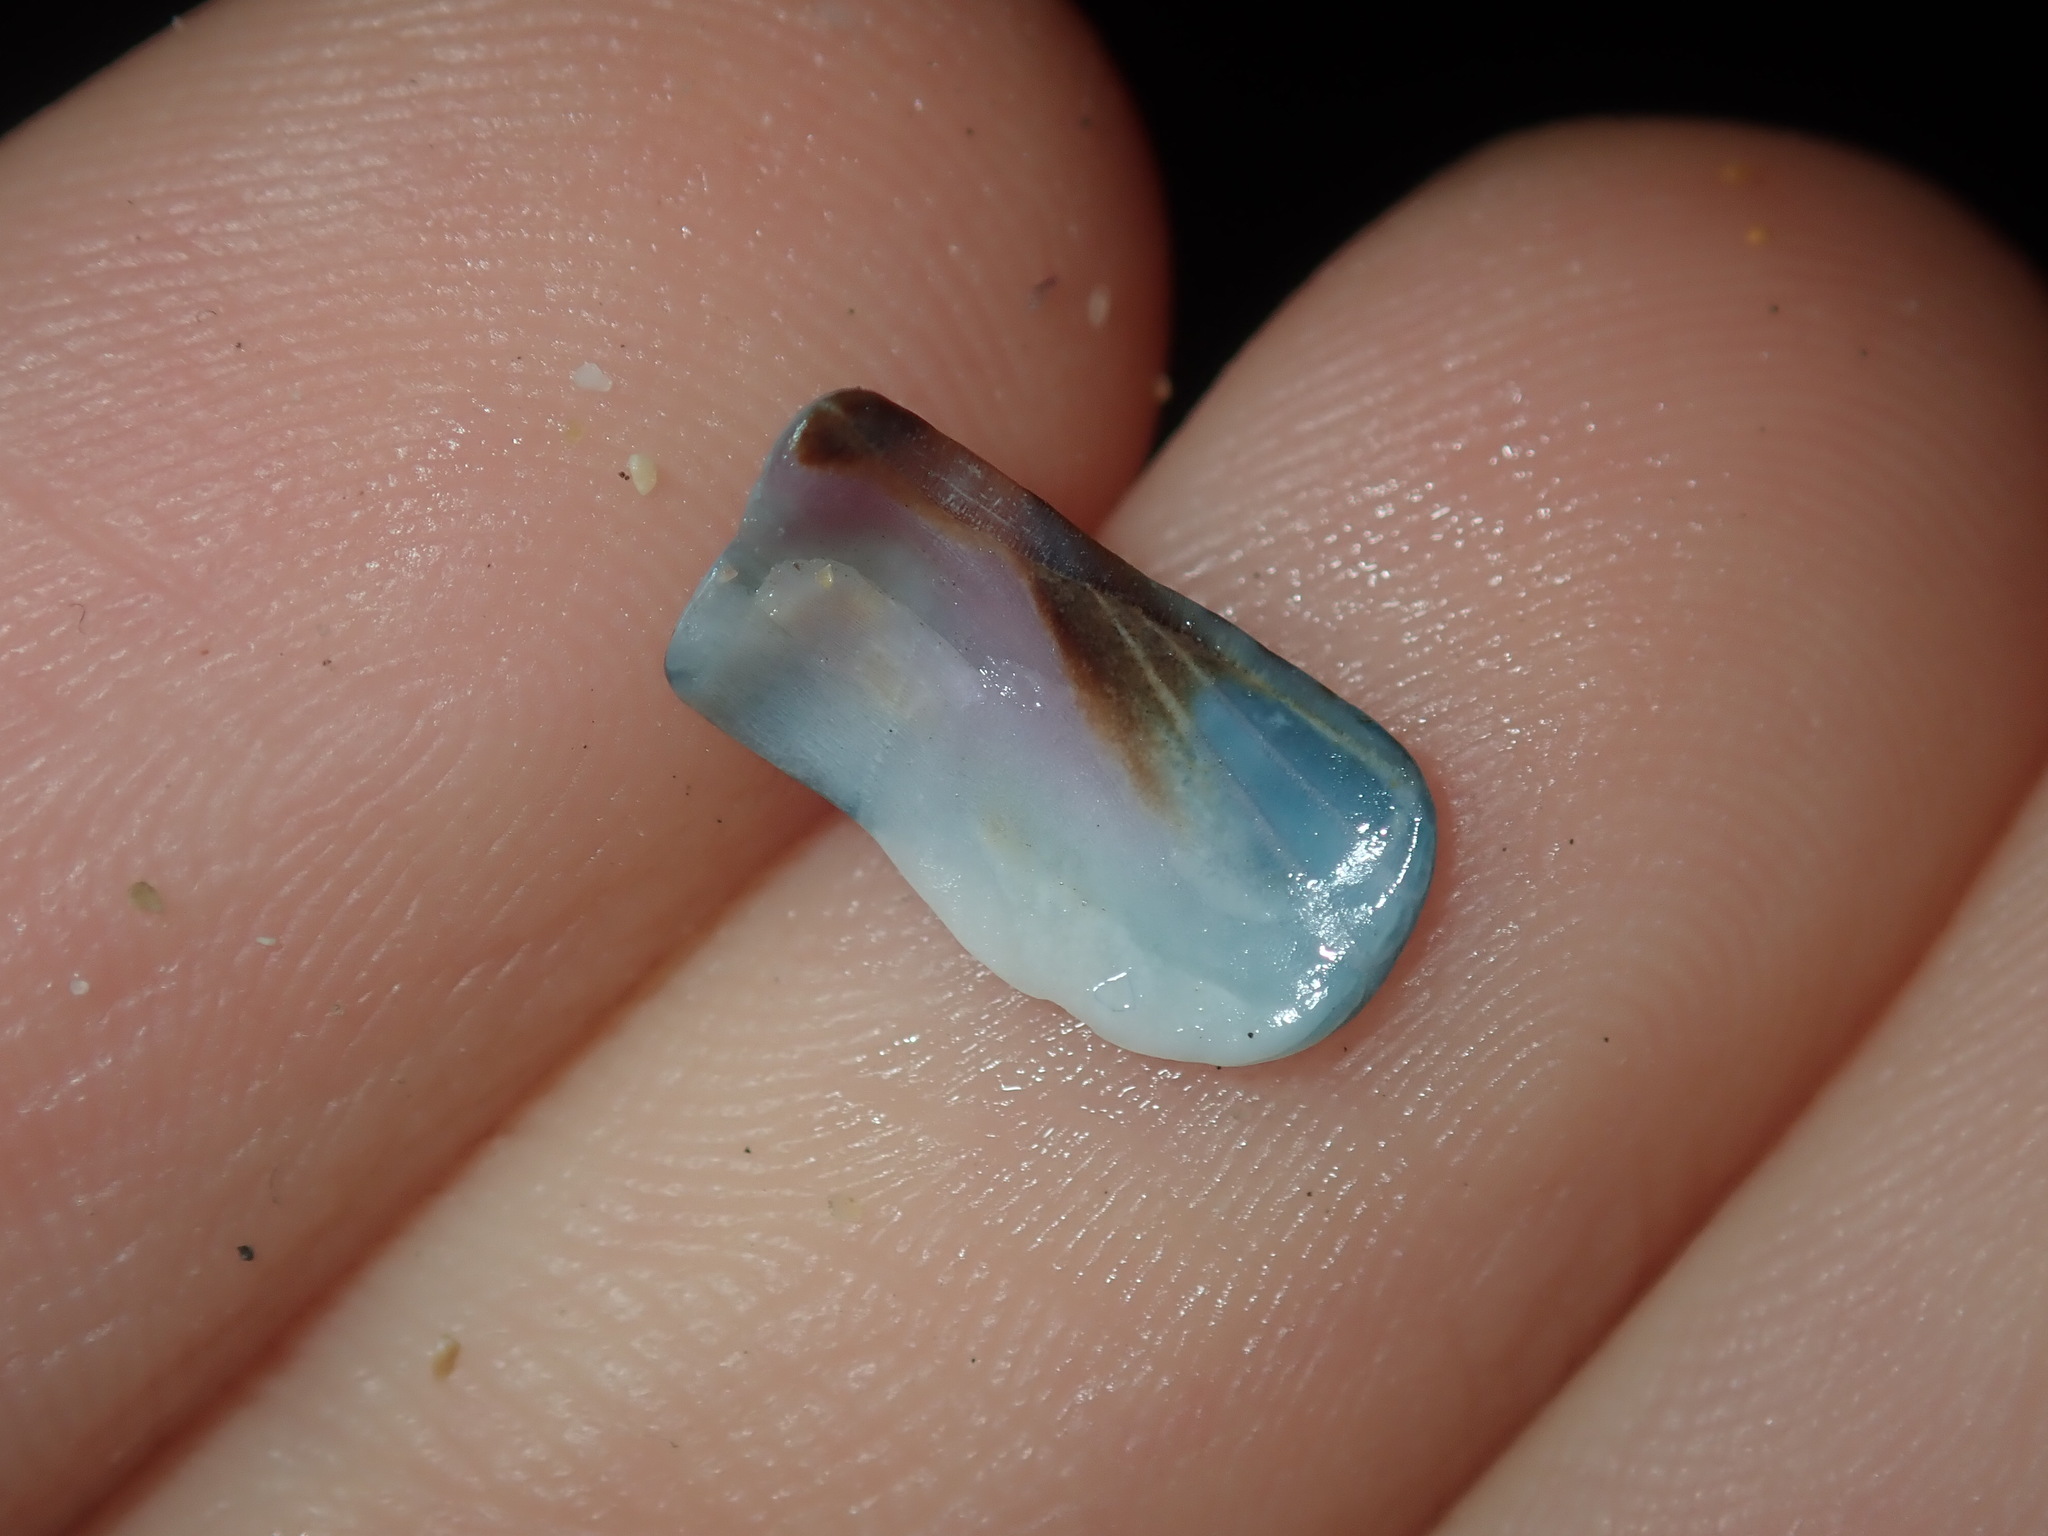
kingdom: Animalia
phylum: Mollusca
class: Polyplacophora
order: Chitonida
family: Ischnochitonidae
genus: Ischnochiton
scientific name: Ischnochiton australis
